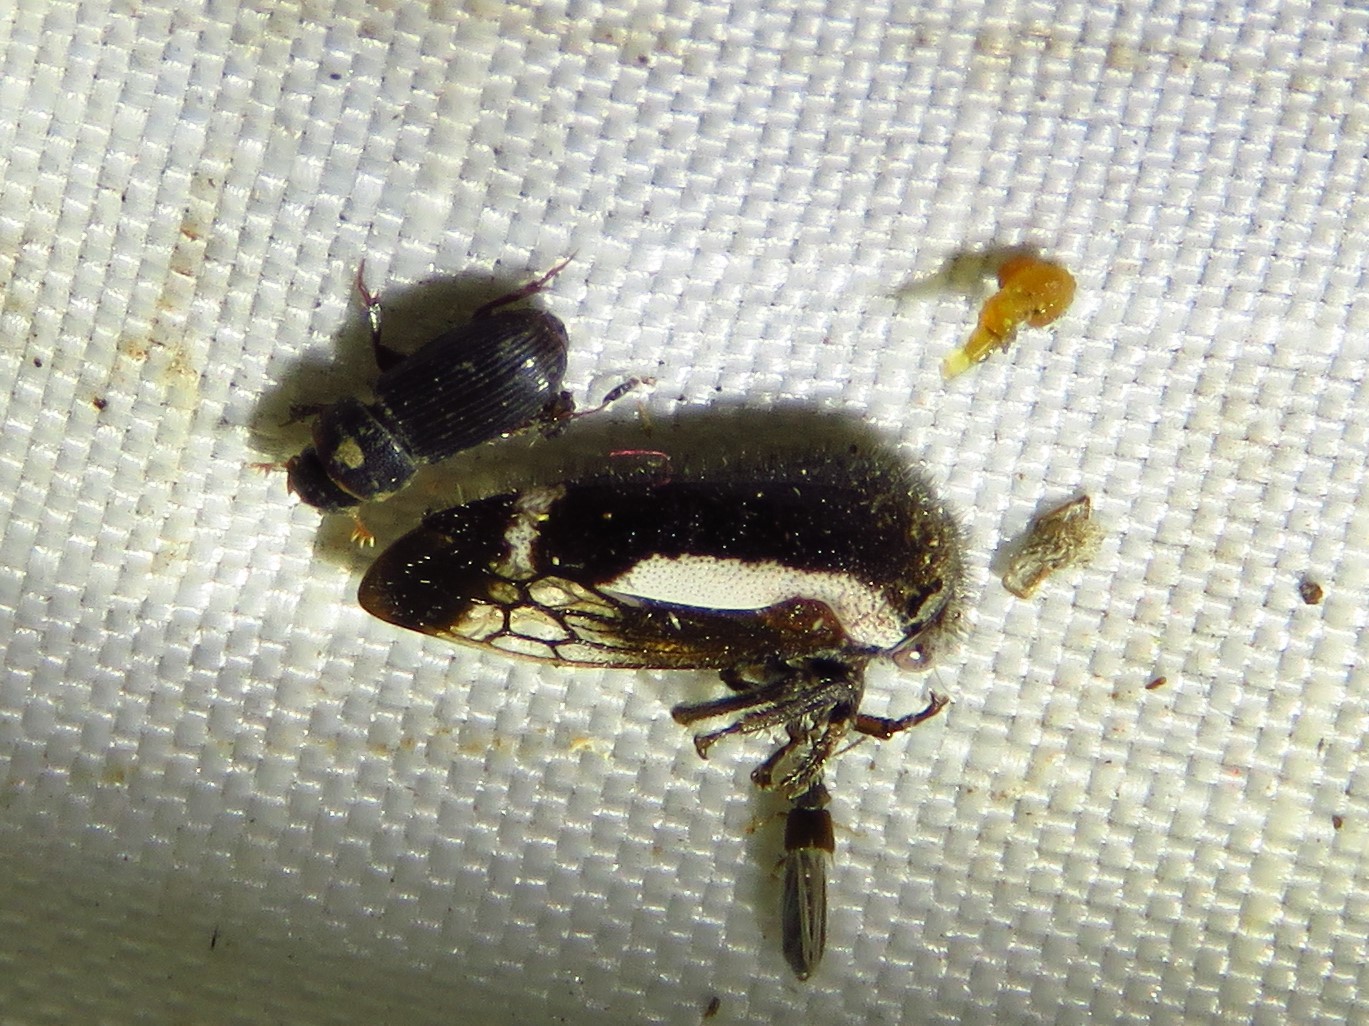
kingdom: Animalia
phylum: Arthropoda
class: Insecta
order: Hemiptera
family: Membracidae
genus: Ophiderma
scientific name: Ophiderma flavicephala
